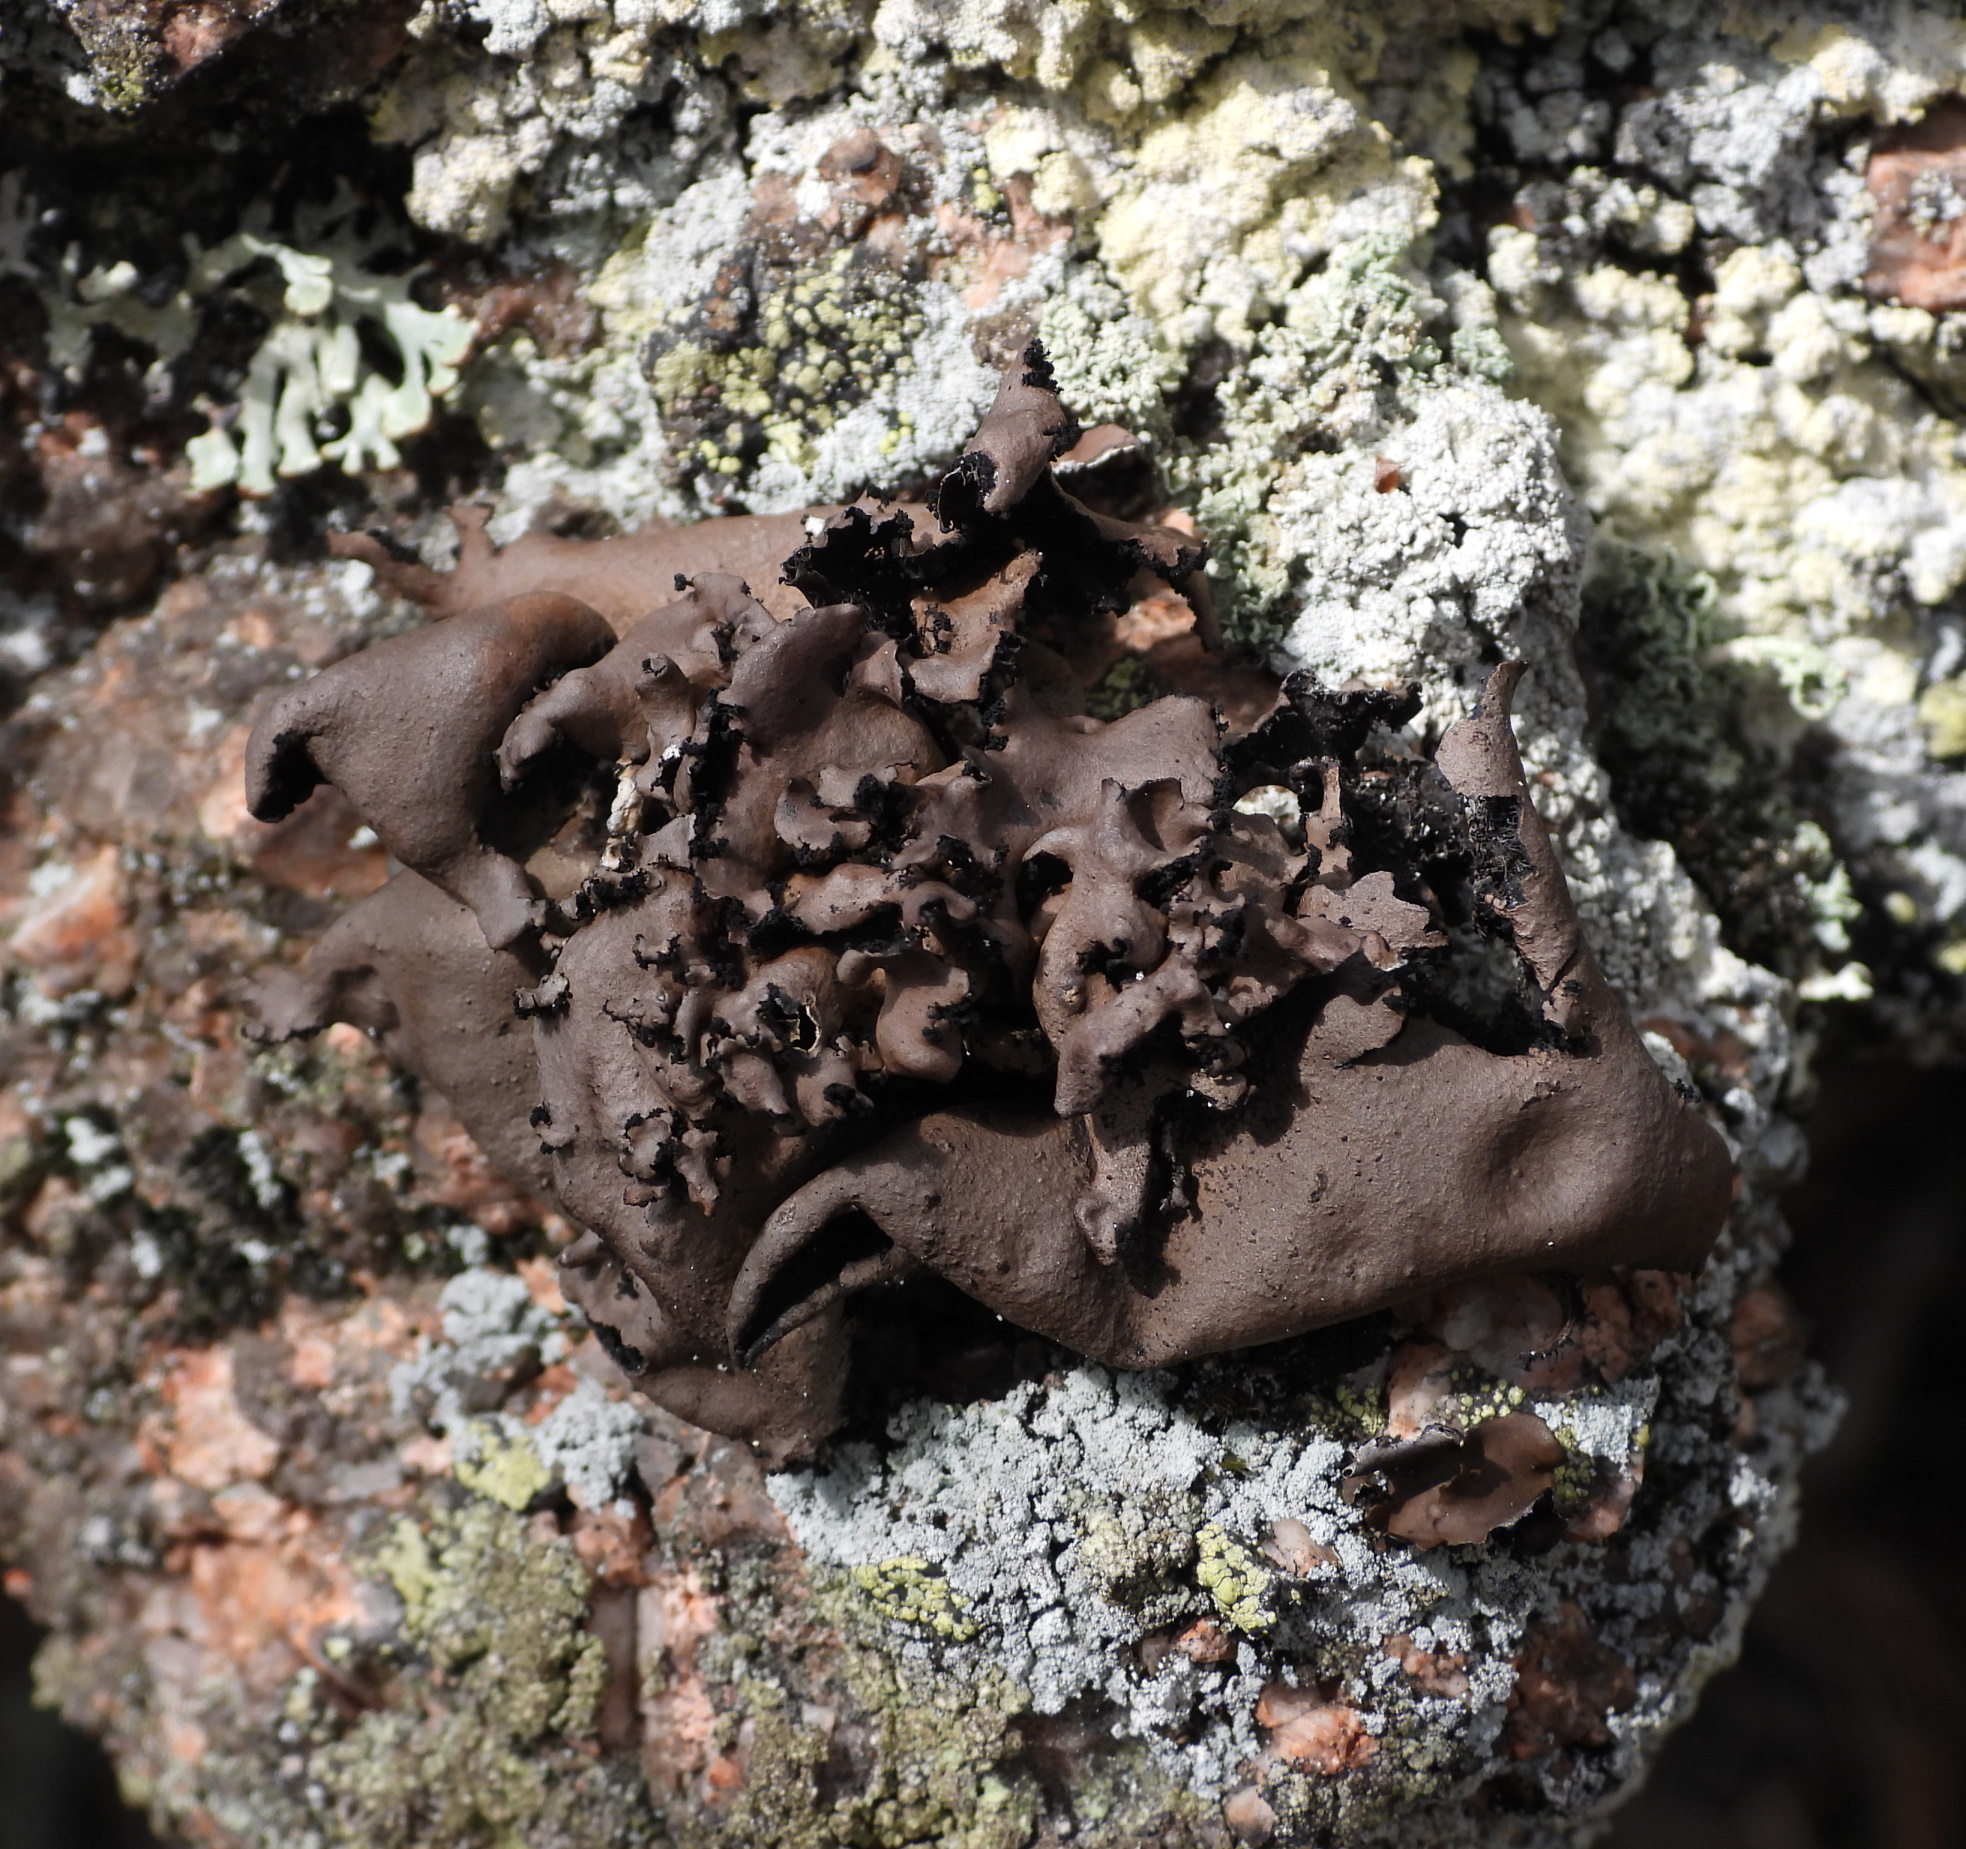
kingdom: Fungi
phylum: Ascomycota
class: Lecanoromycetes
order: Umbilicariales
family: Umbilicariaceae
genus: Umbilicaria
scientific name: Umbilicaria polyrrhiza
